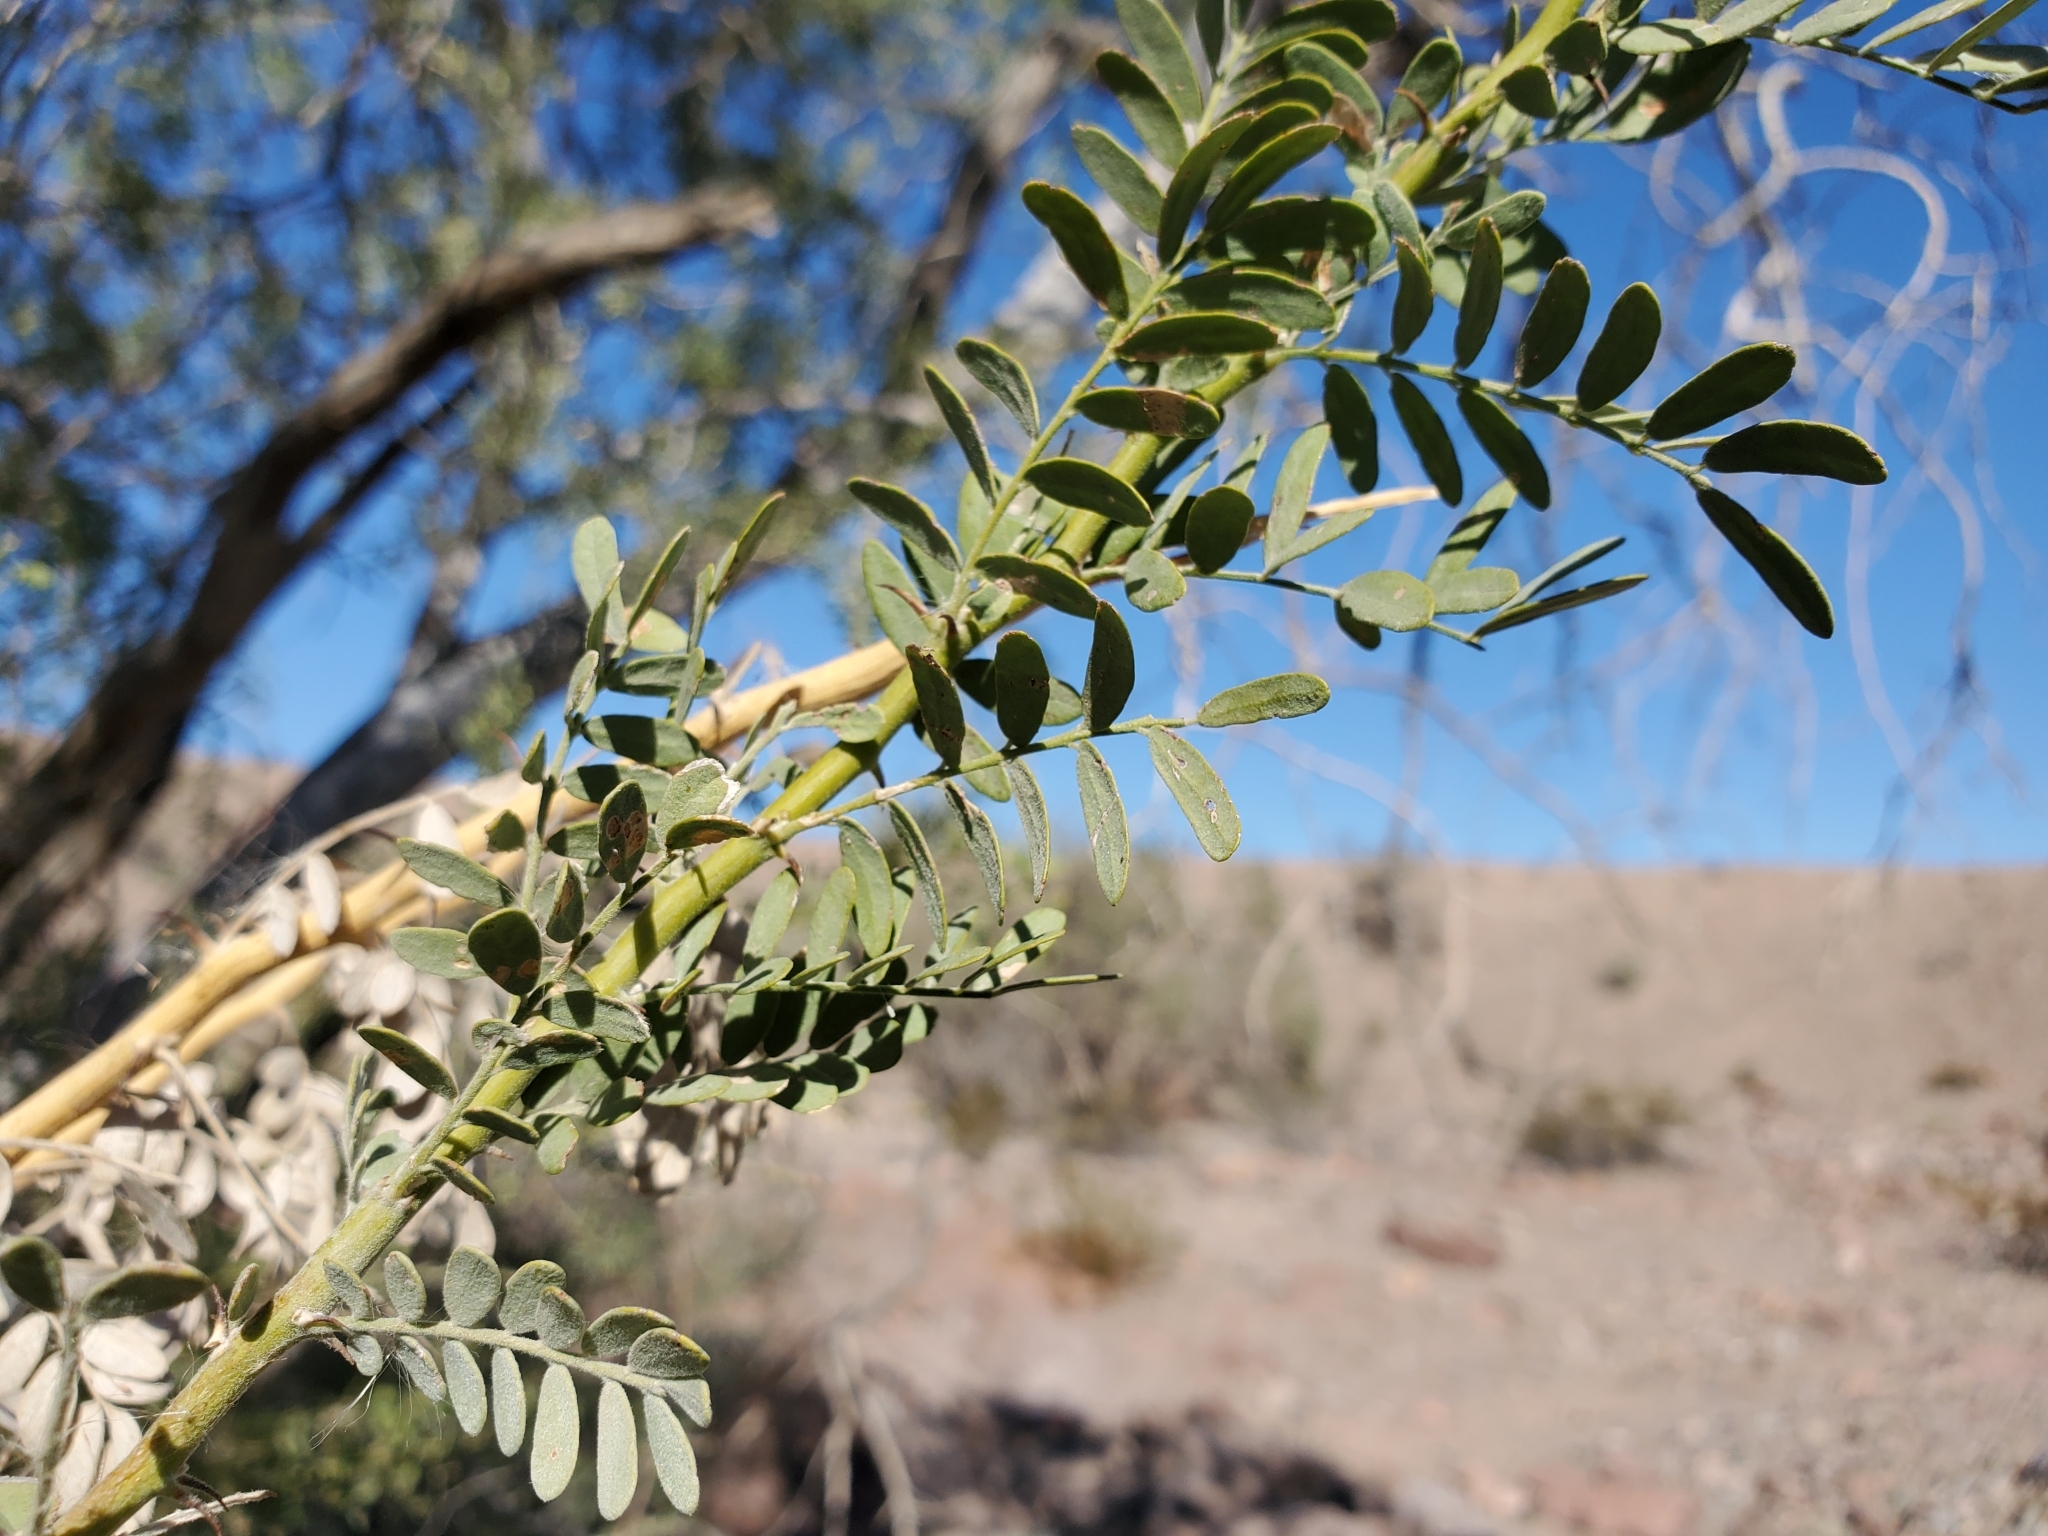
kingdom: Plantae
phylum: Tracheophyta
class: Magnoliopsida
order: Fabales
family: Fabaceae
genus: Olneya
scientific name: Olneya tesota
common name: Desert ironwood
